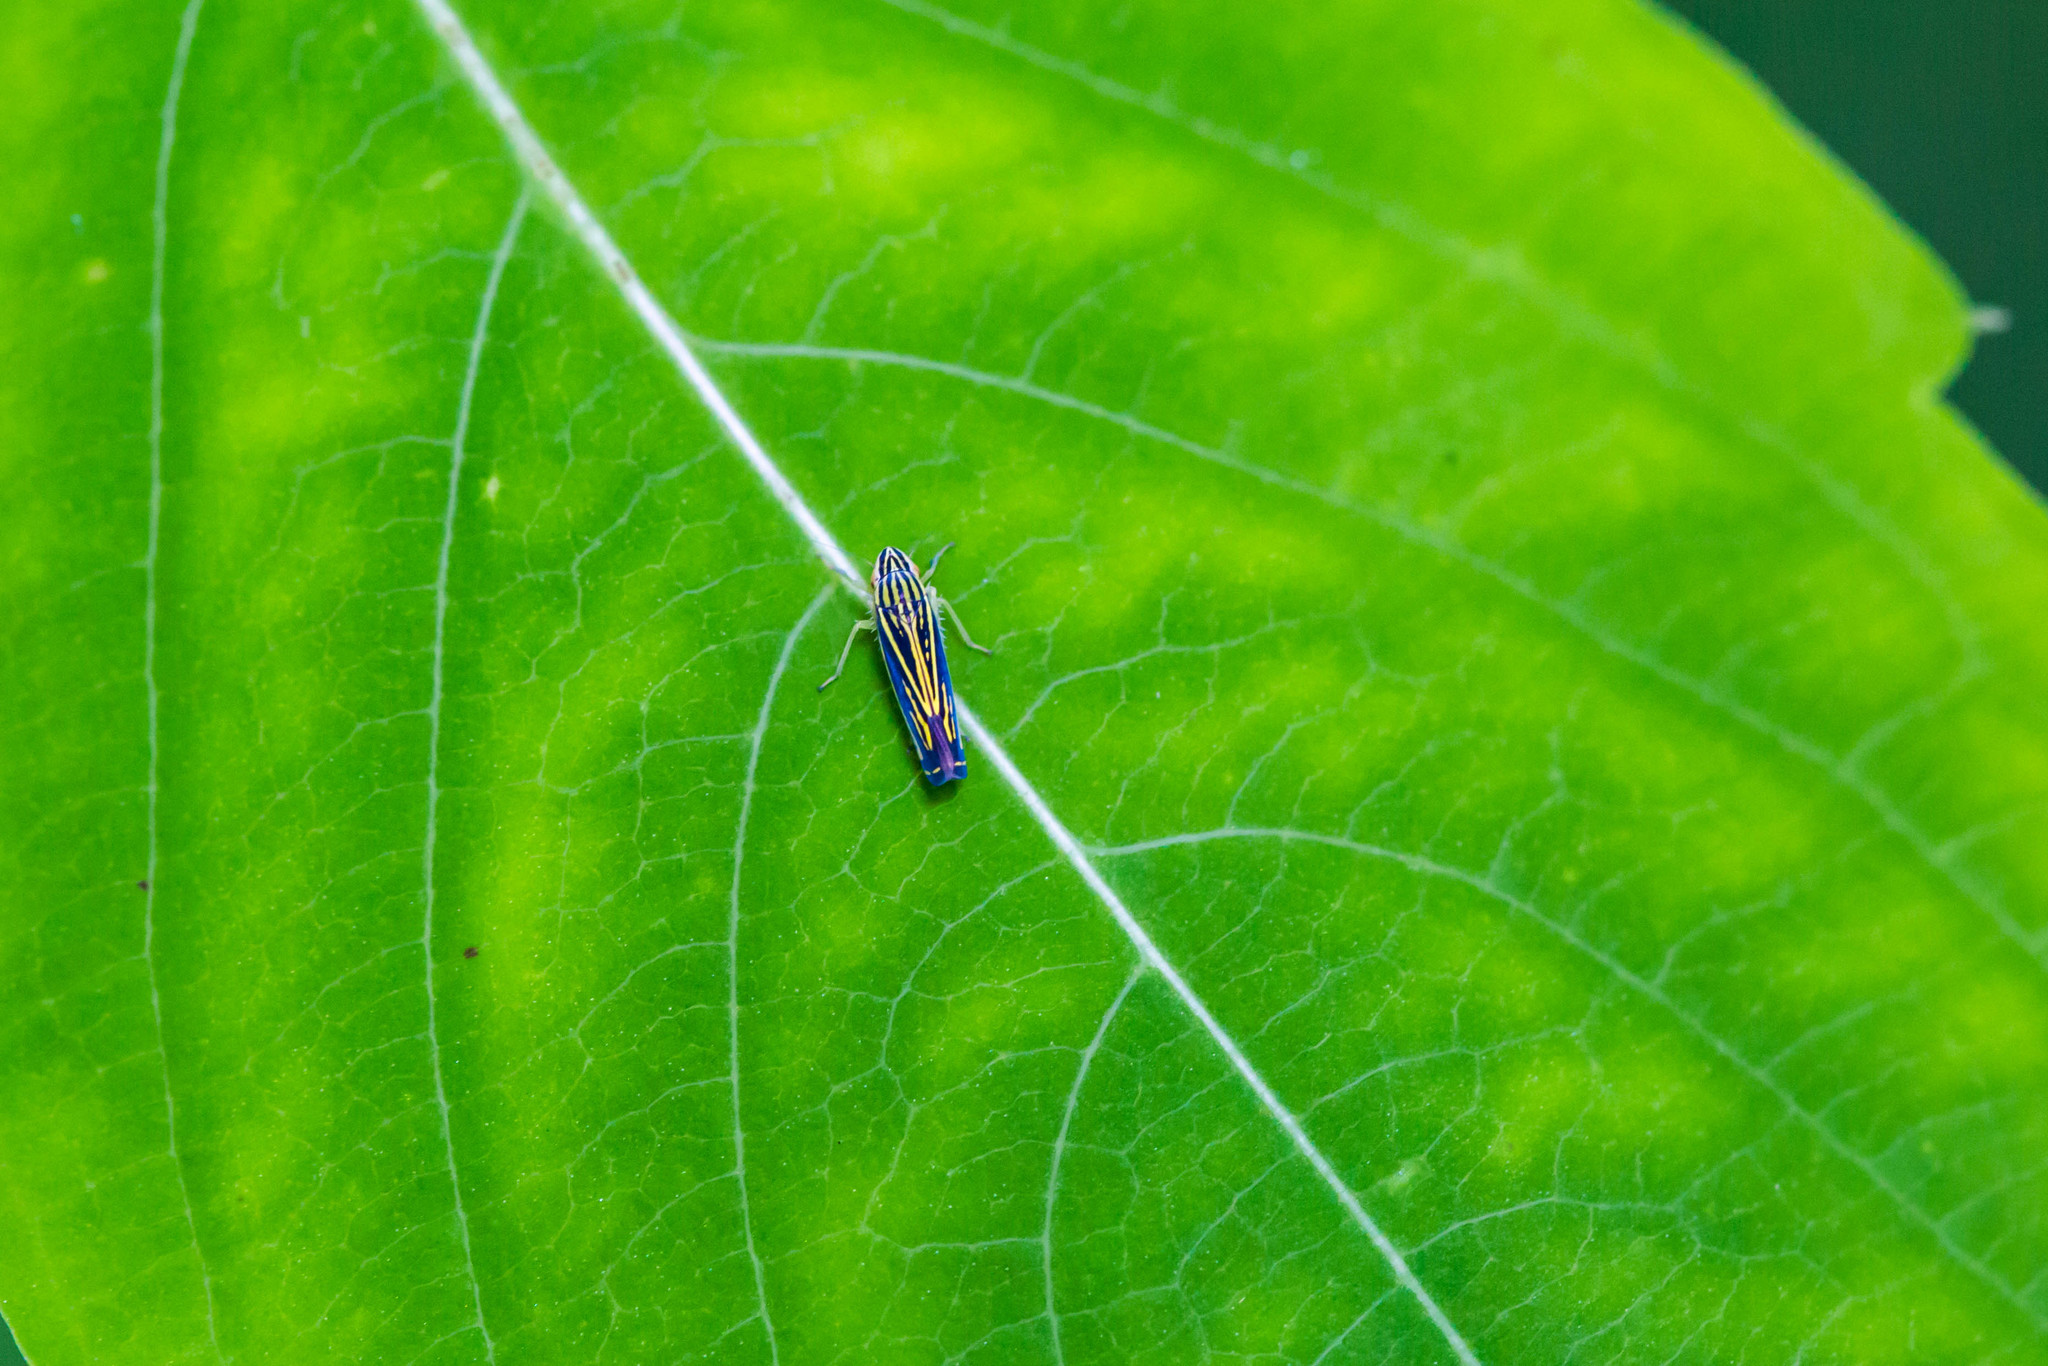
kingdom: Animalia
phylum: Arthropoda
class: Insecta
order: Hemiptera
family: Cicadellidae
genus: Sibovia
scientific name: Sibovia occatoria
